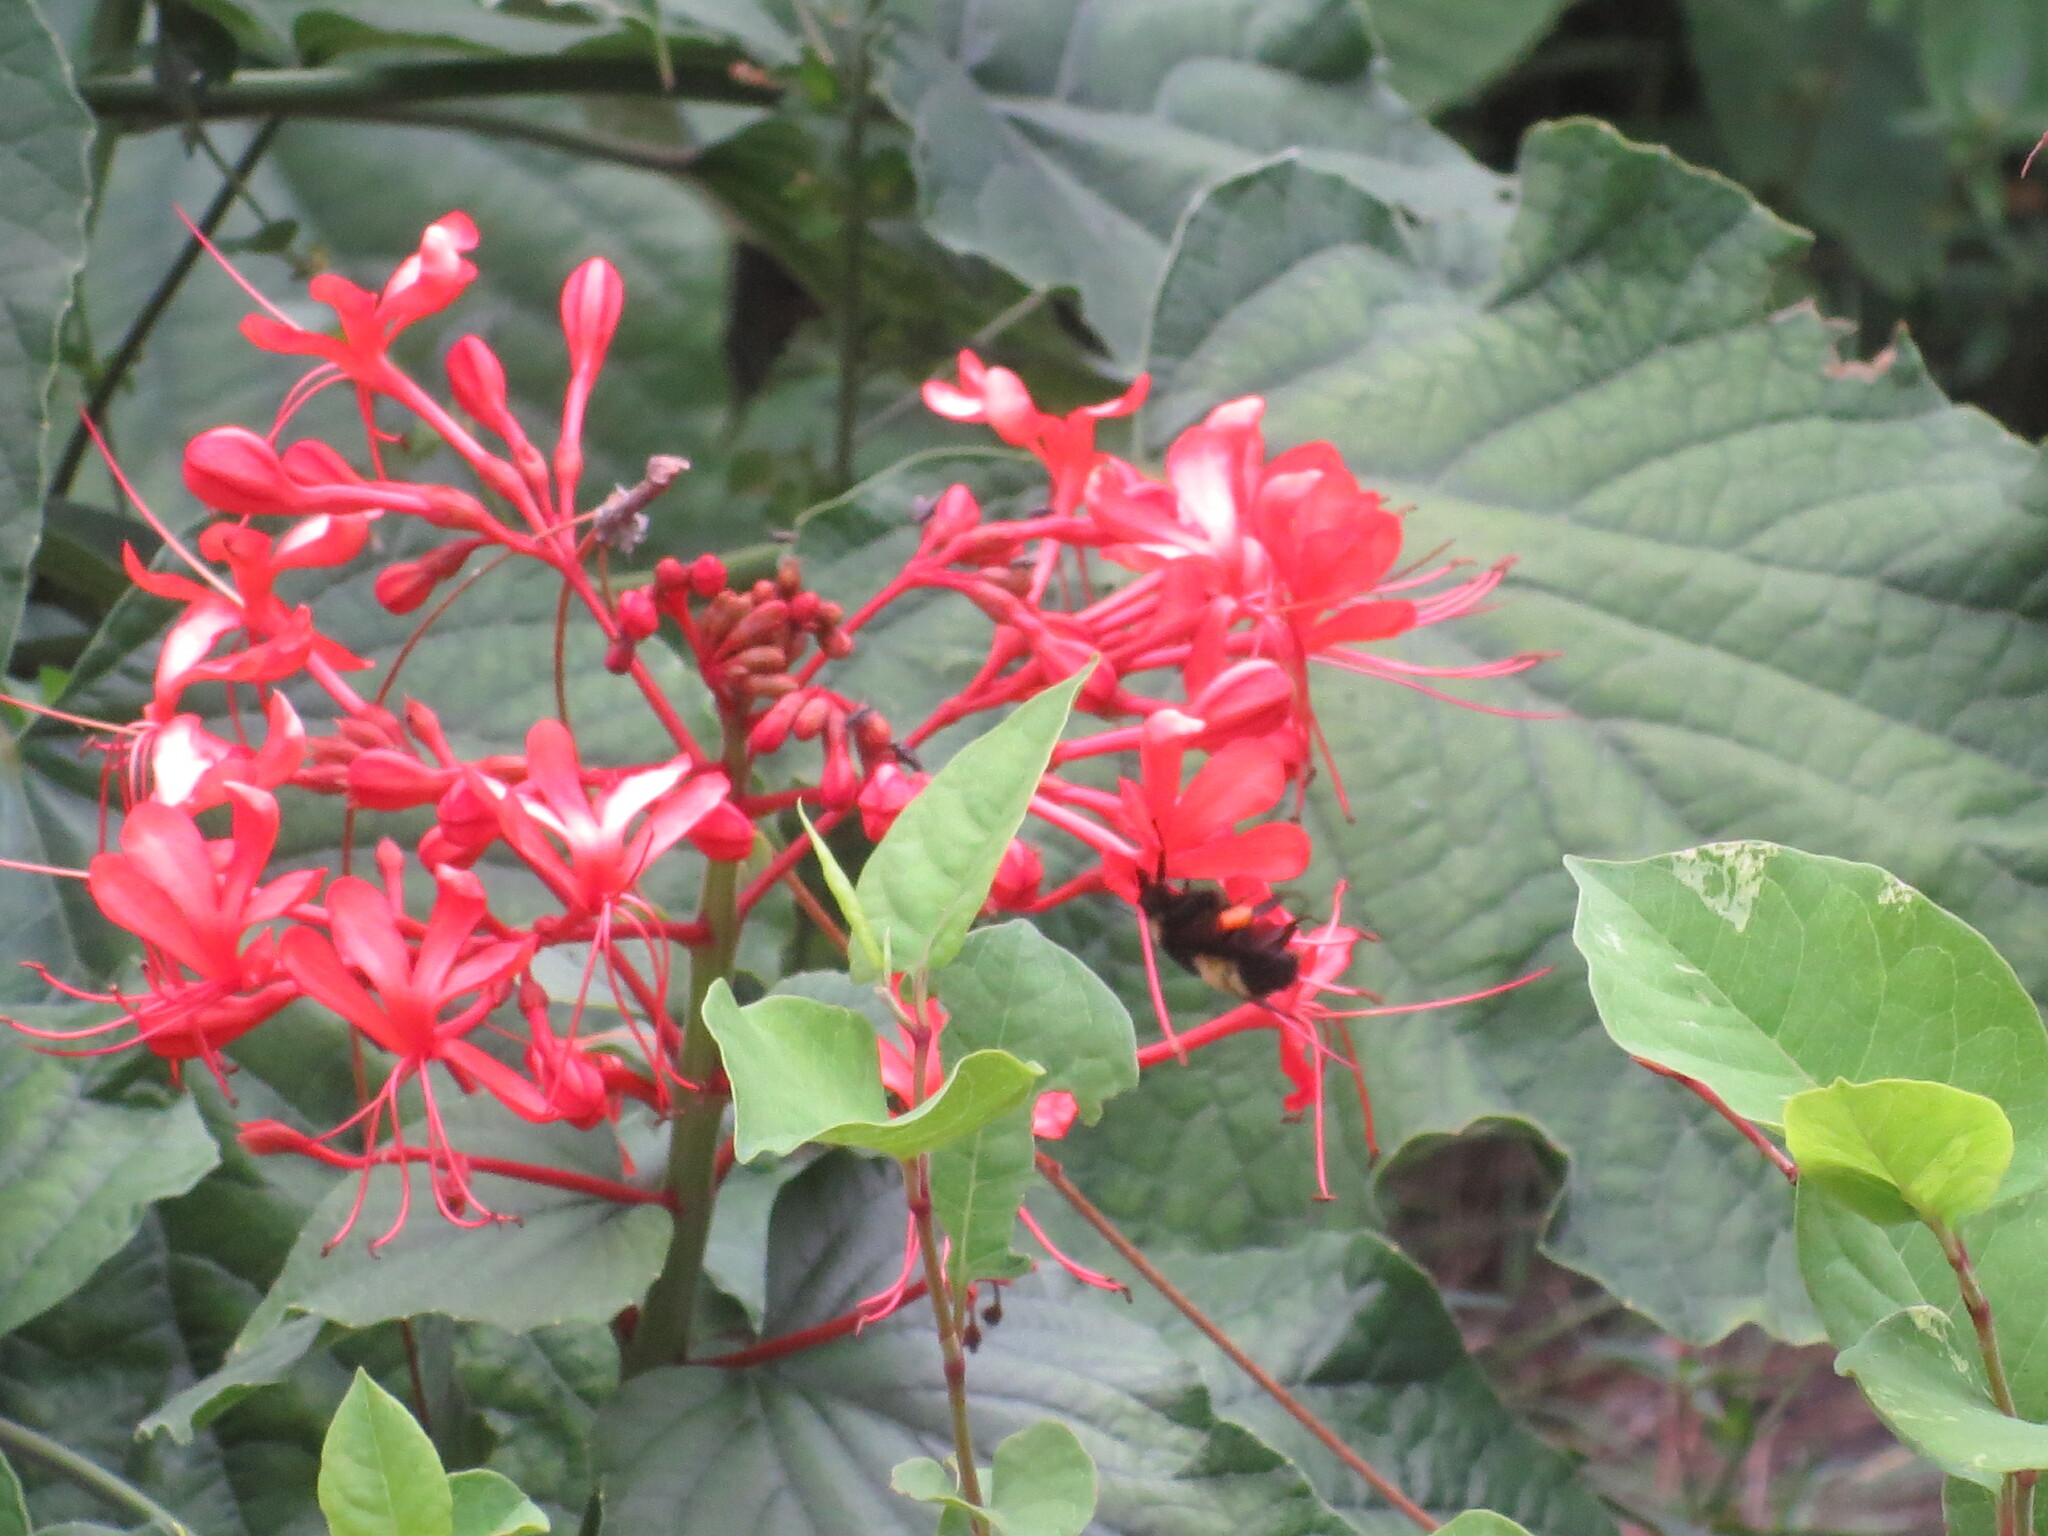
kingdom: Animalia
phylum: Arthropoda
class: Insecta
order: Hymenoptera
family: Apidae
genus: Bombus
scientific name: Bombus pensylvanicus
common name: Bumble bee
